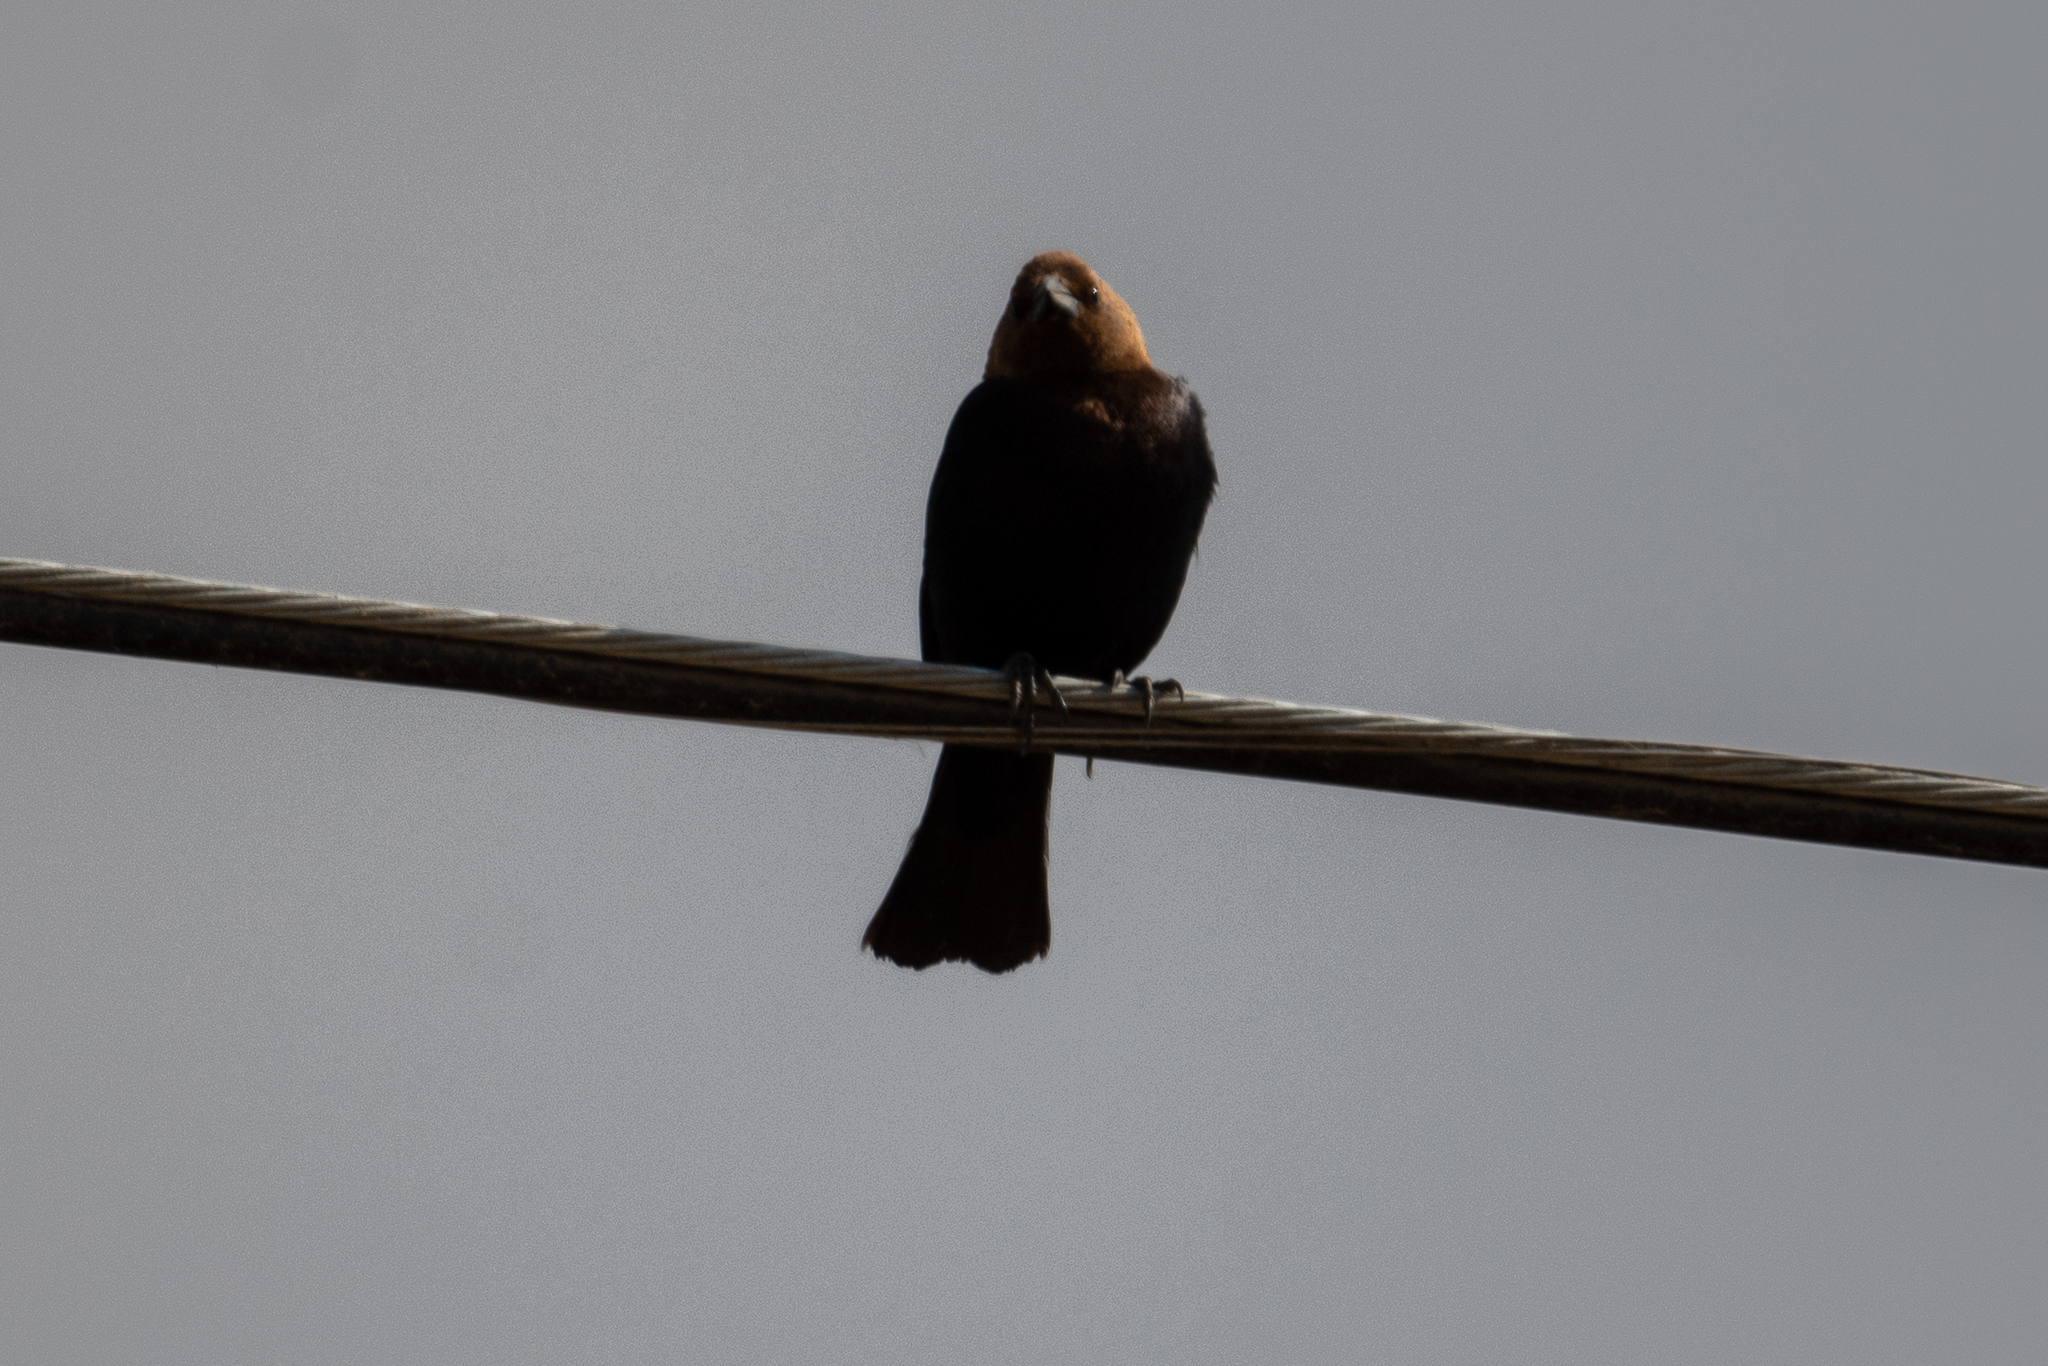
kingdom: Animalia
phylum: Chordata
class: Aves
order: Passeriformes
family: Icteridae
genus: Molothrus
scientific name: Molothrus ater
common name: Brown-headed cowbird
